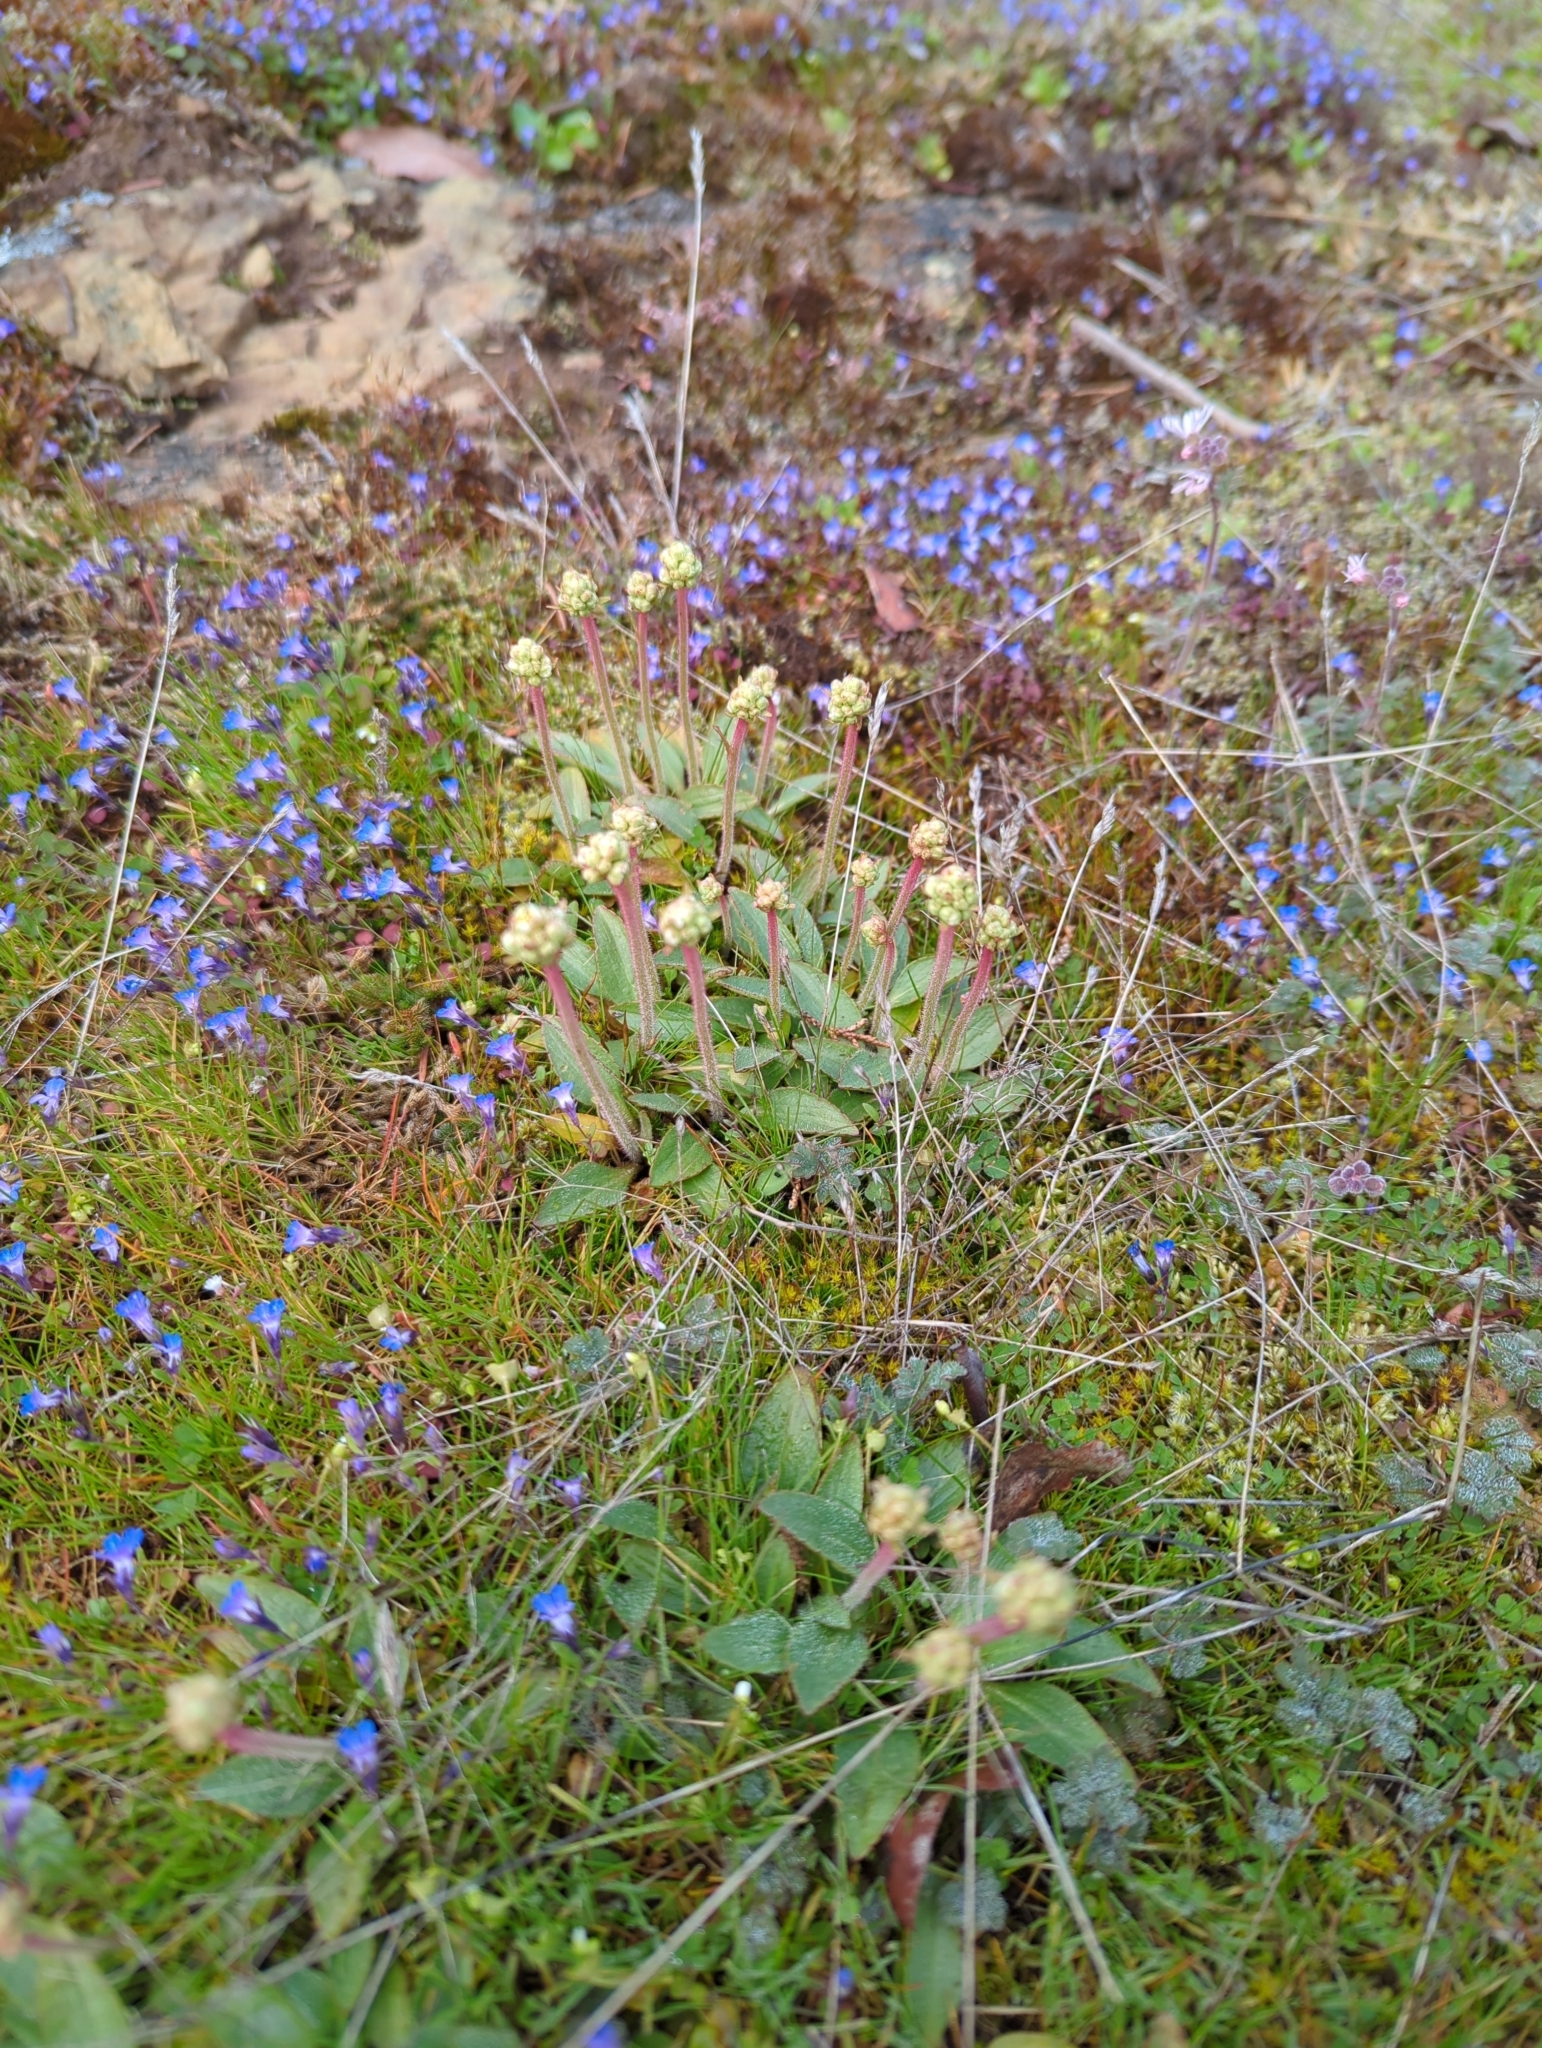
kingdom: Plantae
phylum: Tracheophyta
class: Magnoliopsida
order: Saxifragales
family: Saxifragaceae
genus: Micranthes
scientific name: Micranthes integrifolia
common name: Wholeleaf saxifrage
